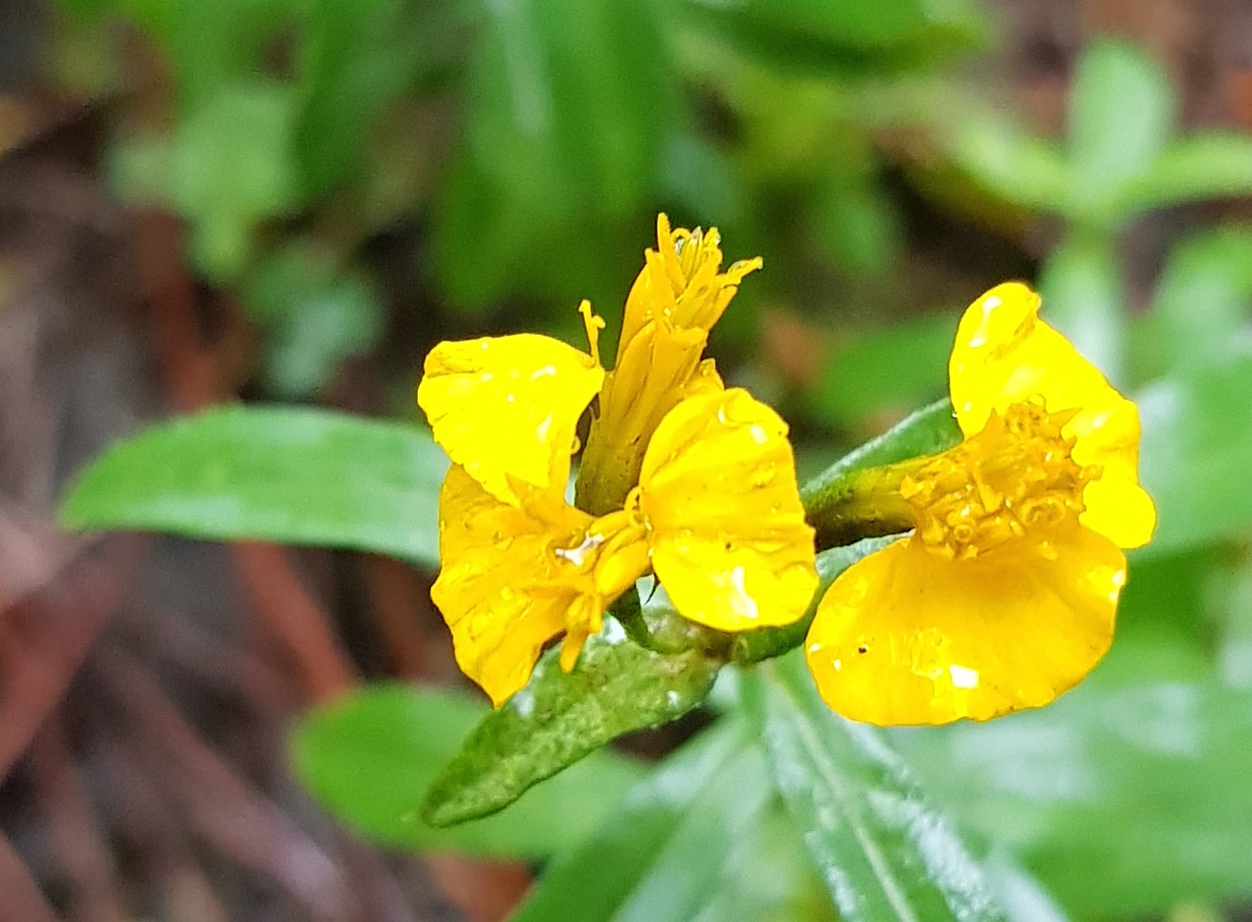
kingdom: Plantae
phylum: Tracheophyta
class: Magnoliopsida
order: Asterales
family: Asteraceae
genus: Tagetes
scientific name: Tagetes lucida
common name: Sweetscented marigold
